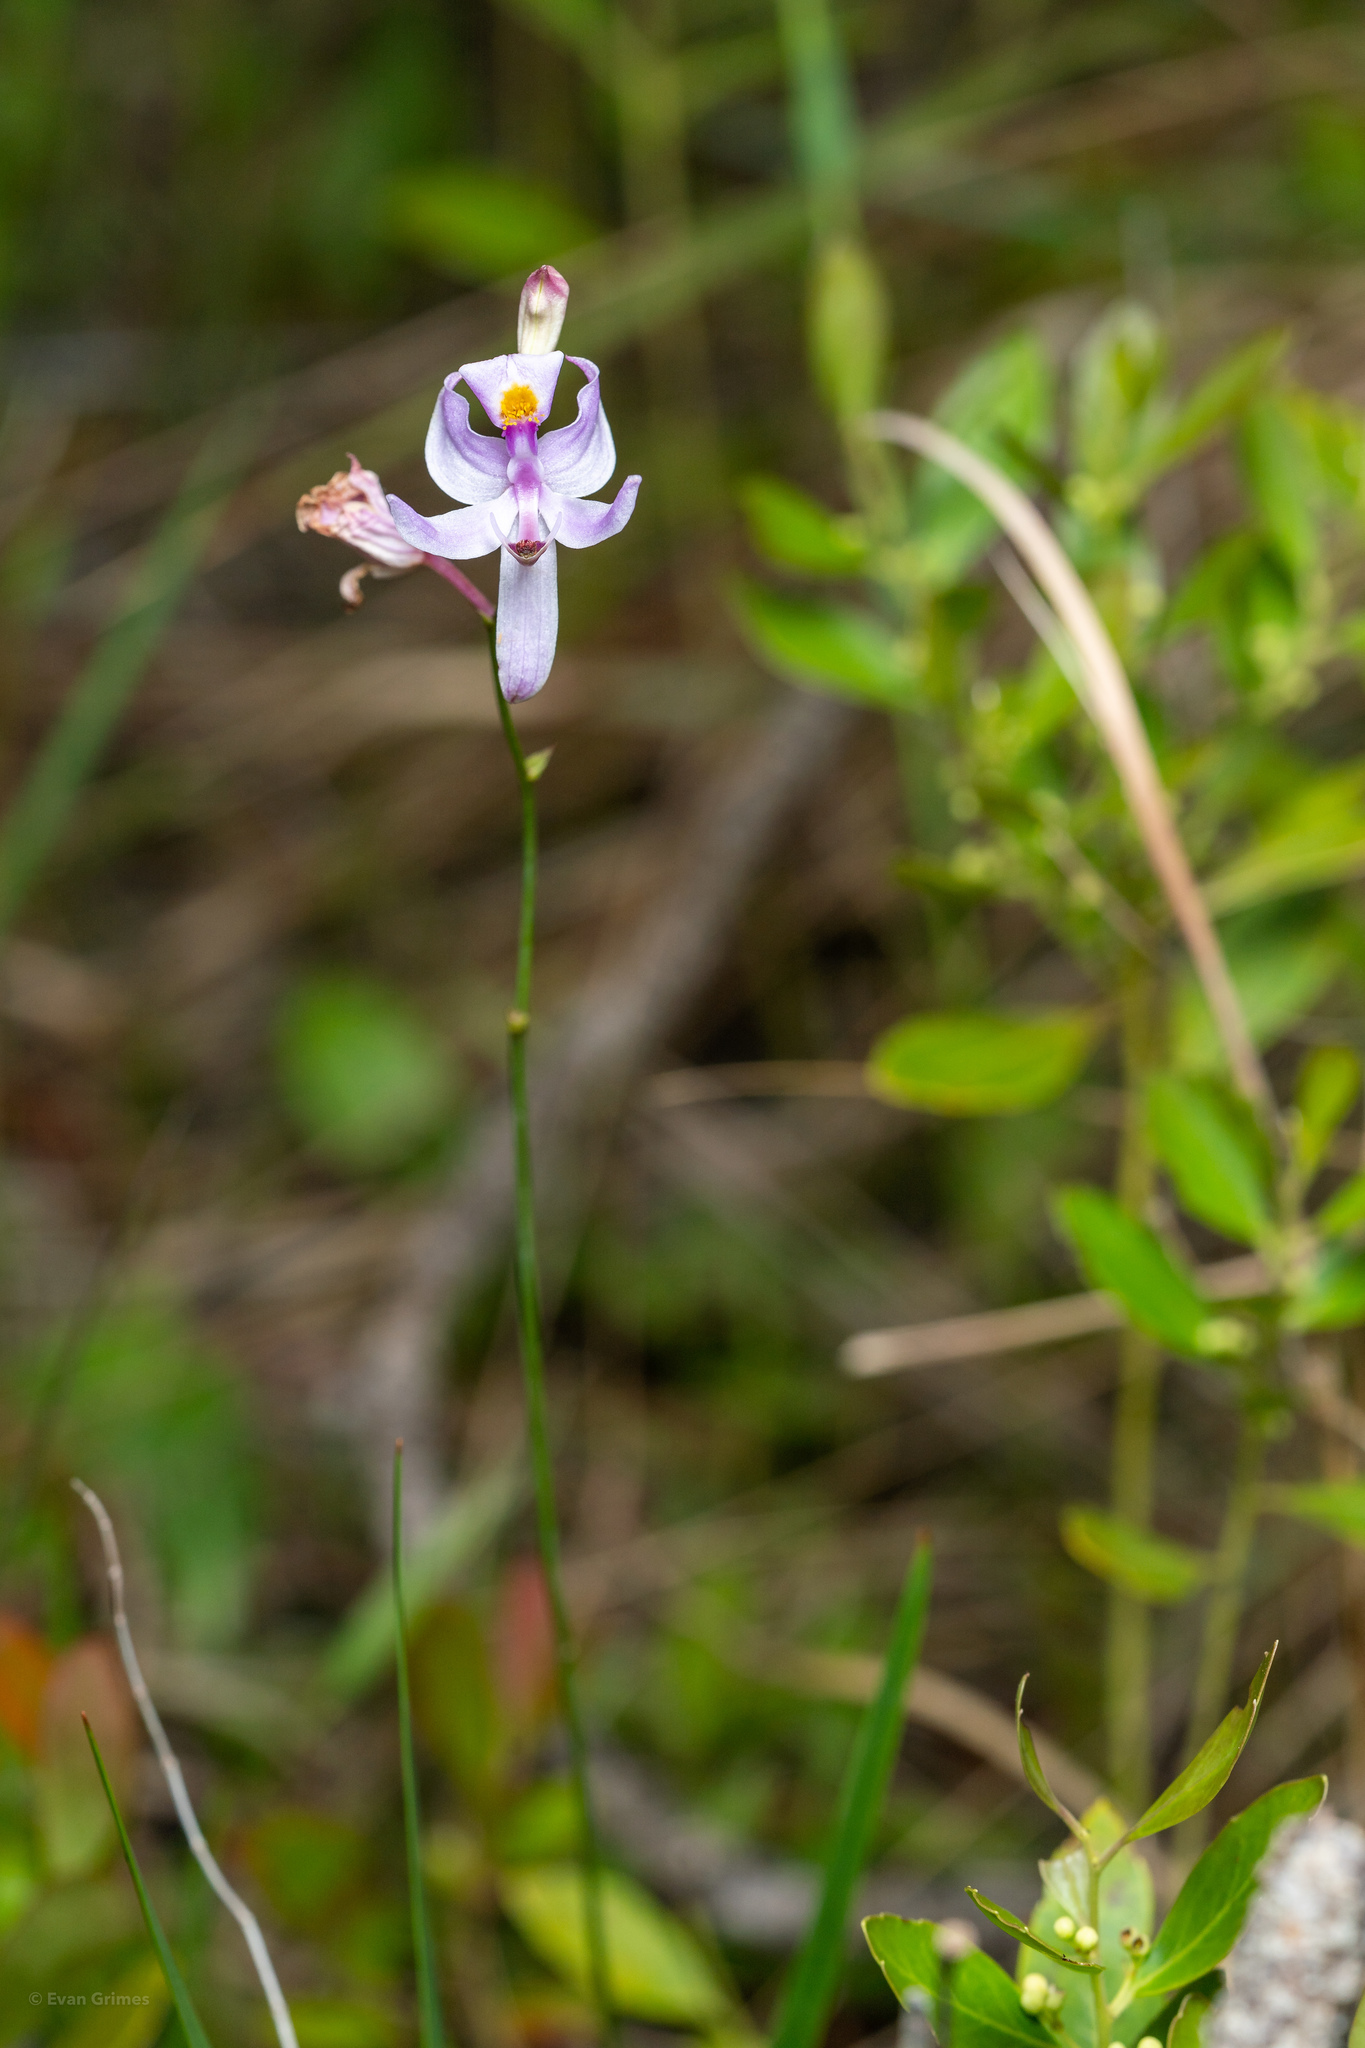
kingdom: Plantae
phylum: Tracheophyta
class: Liliopsida
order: Asparagales
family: Orchidaceae
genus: Calopogon
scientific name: Calopogon pallidus
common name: Pale grasspink
